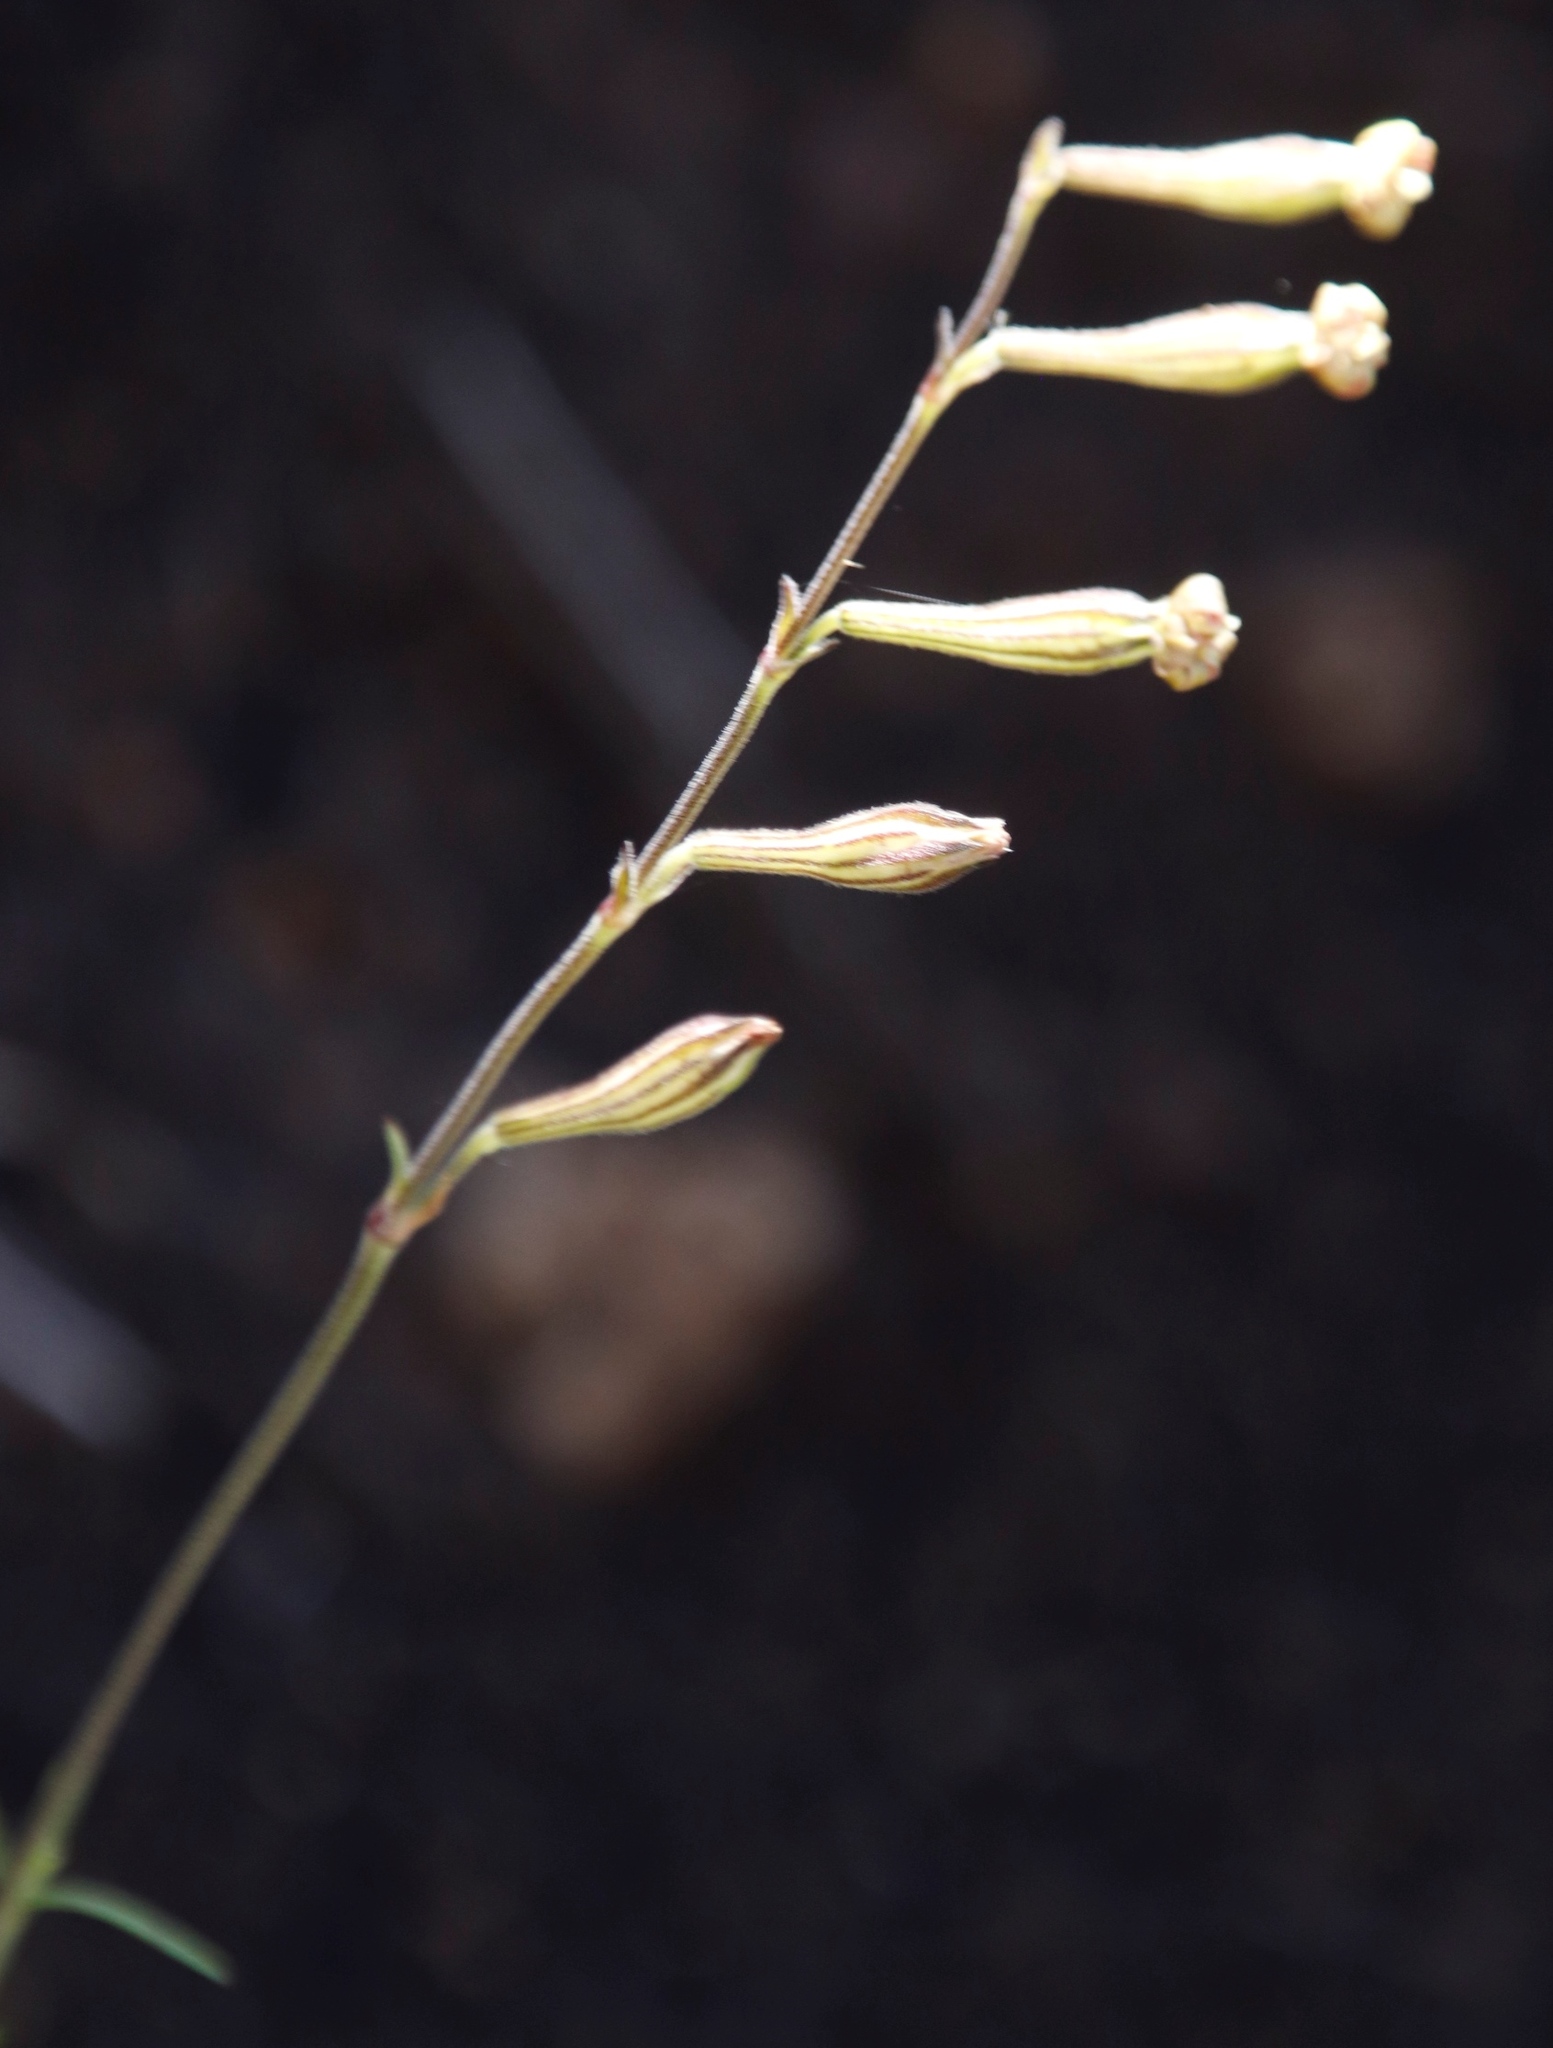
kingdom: Plantae
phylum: Tracheophyta
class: Magnoliopsida
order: Caryophyllales
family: Caryophyllaceae
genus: Silene
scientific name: Silene burchellii
